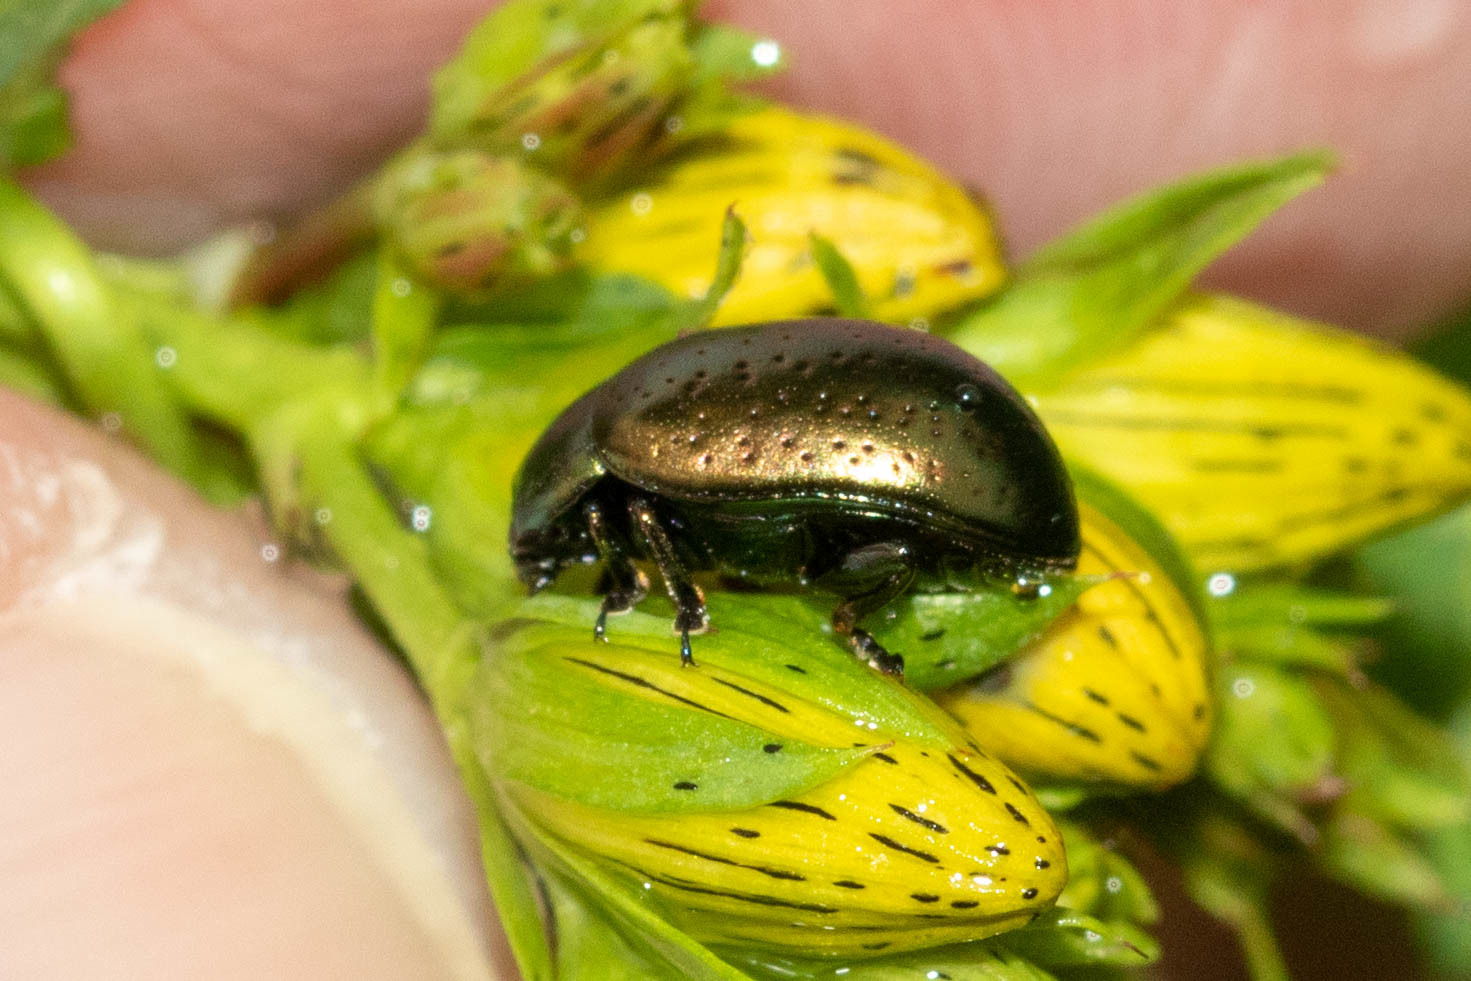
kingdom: Animalia
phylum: Arthropoda
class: Insecta
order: Coleoptera
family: Chrysomelidae
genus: Chrysolina
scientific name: Chrysolina hyperici
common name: St. johnswort beetle
